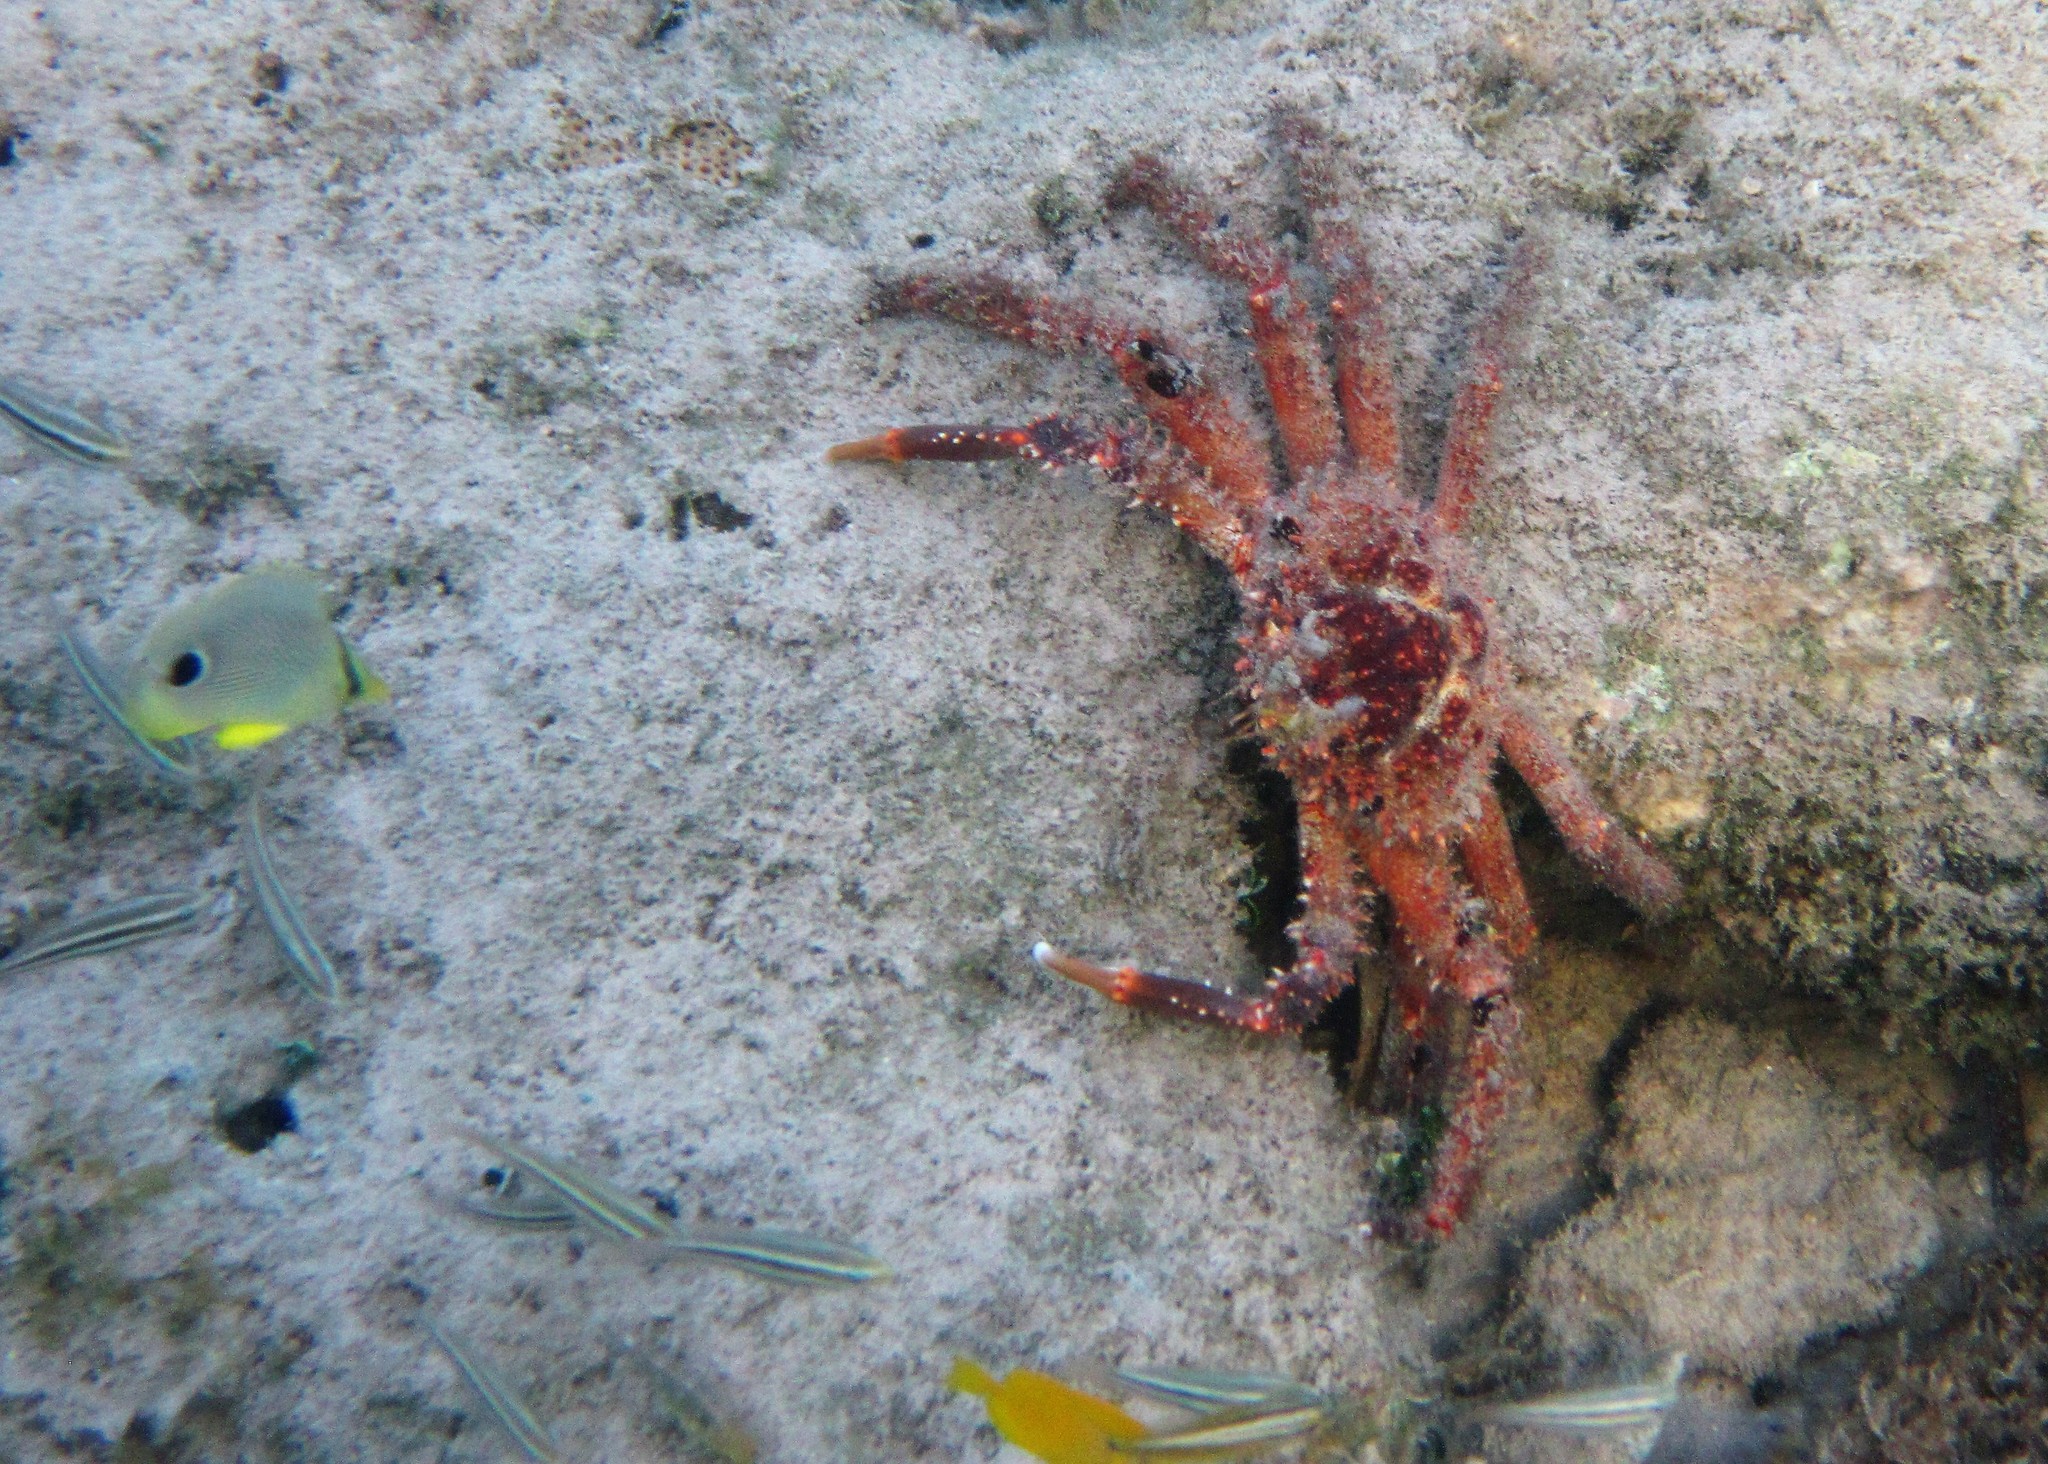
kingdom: Animalia
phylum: Arthropoda
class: Malacostraca
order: Decapoda
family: Mithracidae
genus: Maguimithrax
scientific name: Maguimithrax spinosissimus
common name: Spiny spider crab
